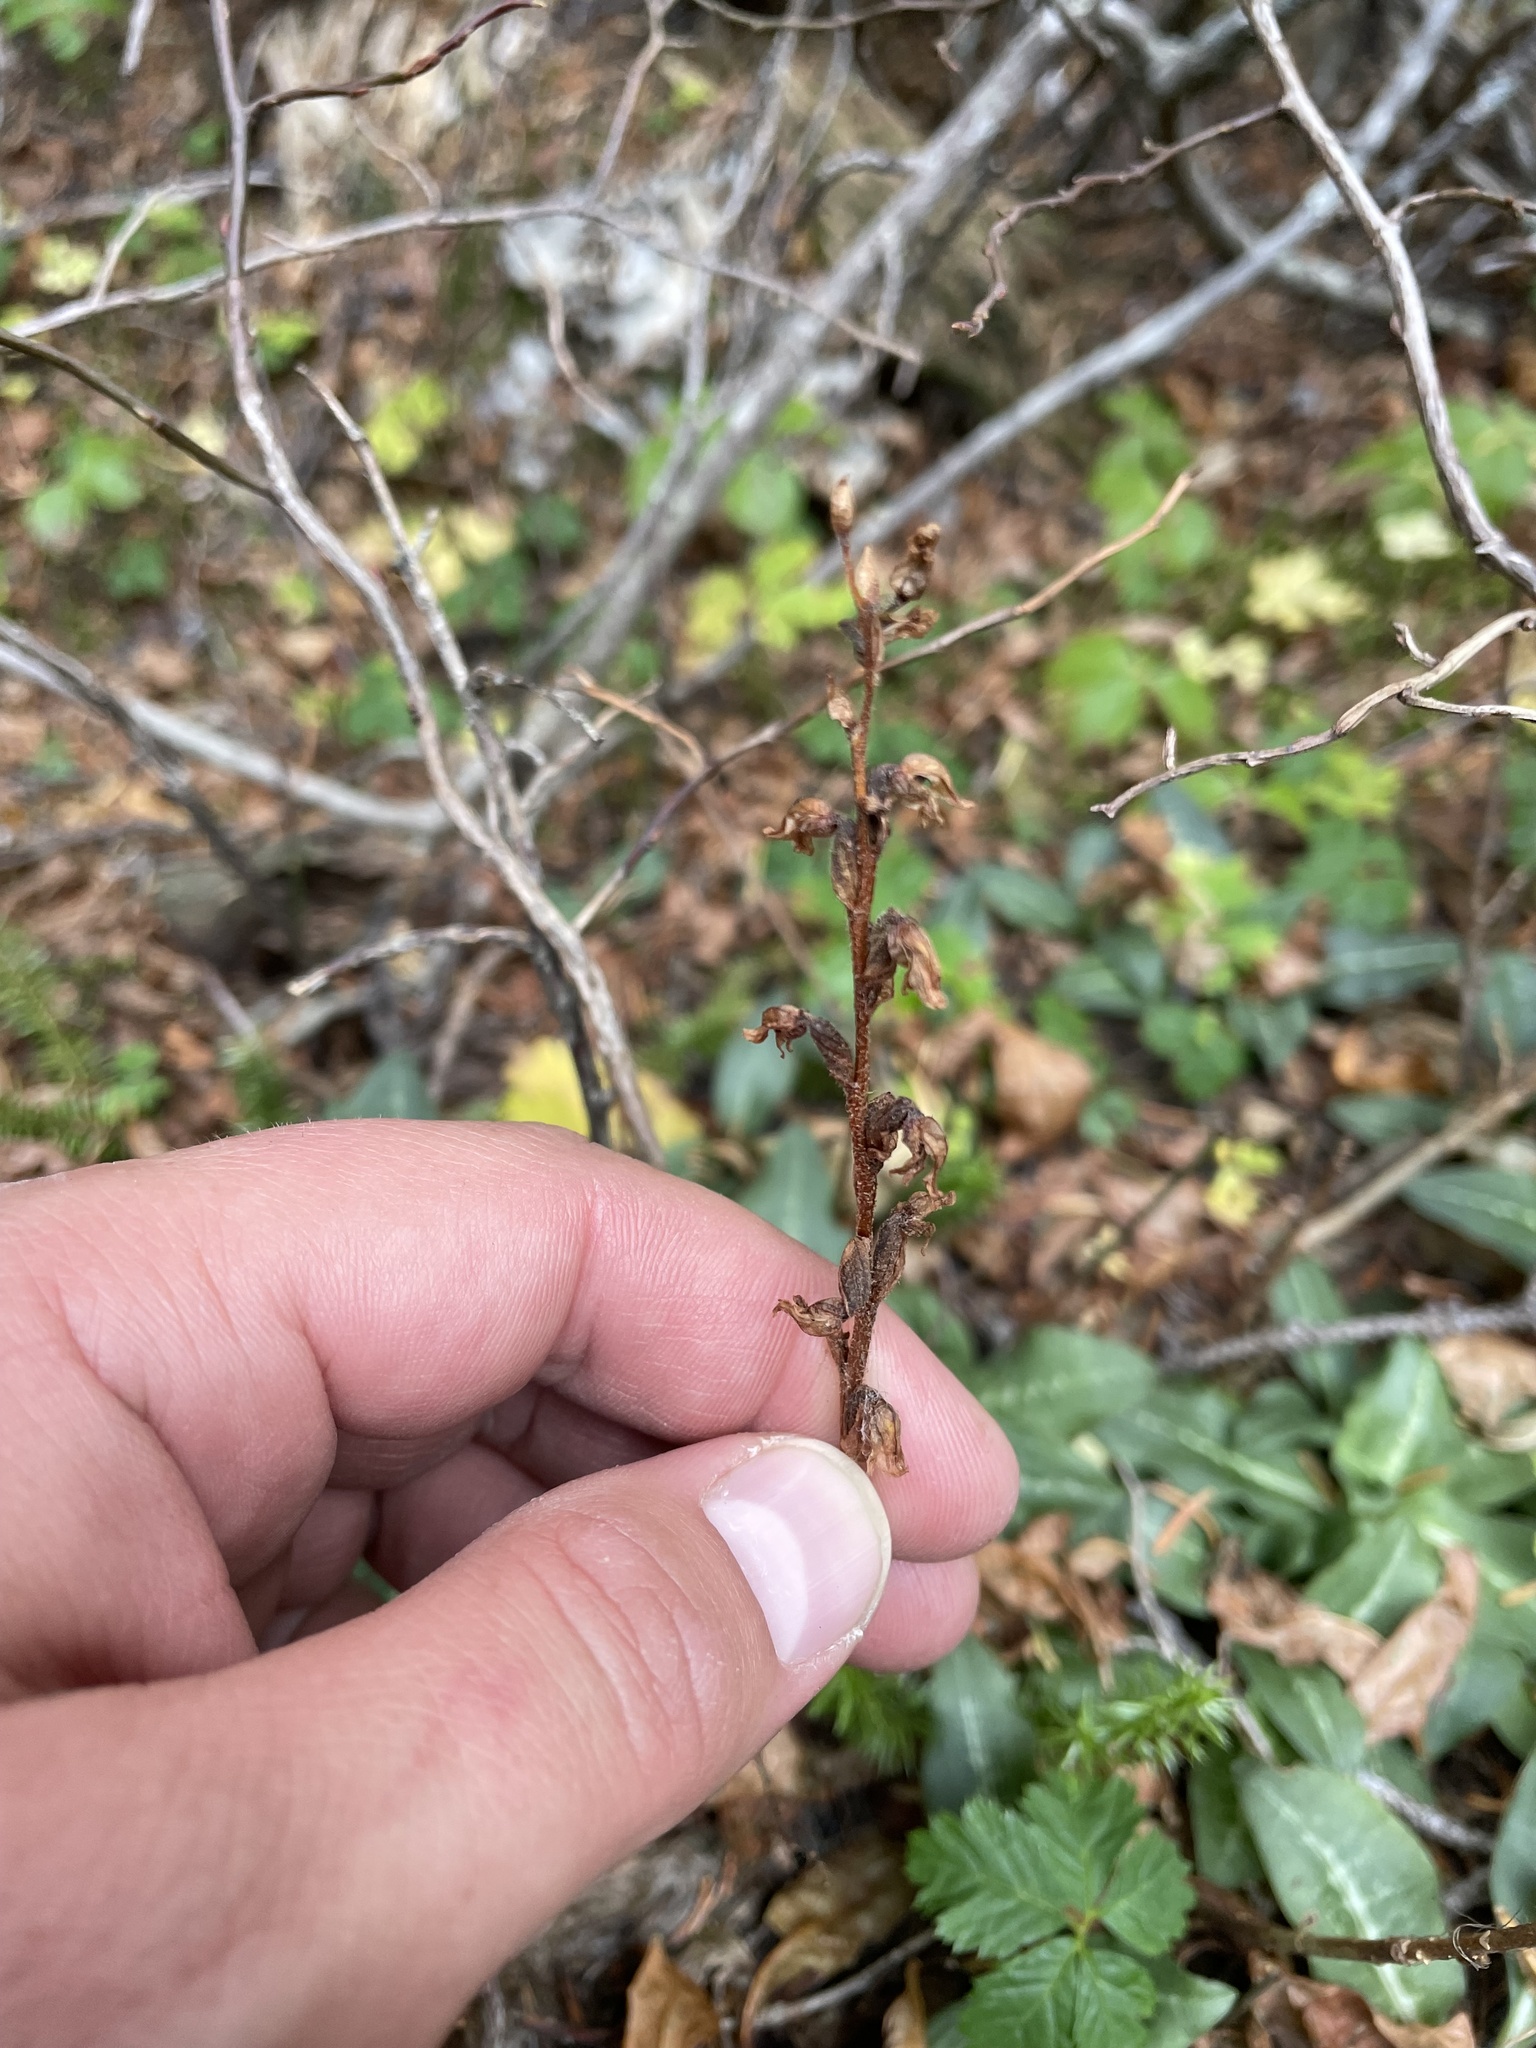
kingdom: Plantae
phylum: Tracheophyta
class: Liliopsida
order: Asparagales
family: Orchidaceae
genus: Goodyera
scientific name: Goodyera oblongifolia
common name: Giant rattlesnake-plantain
